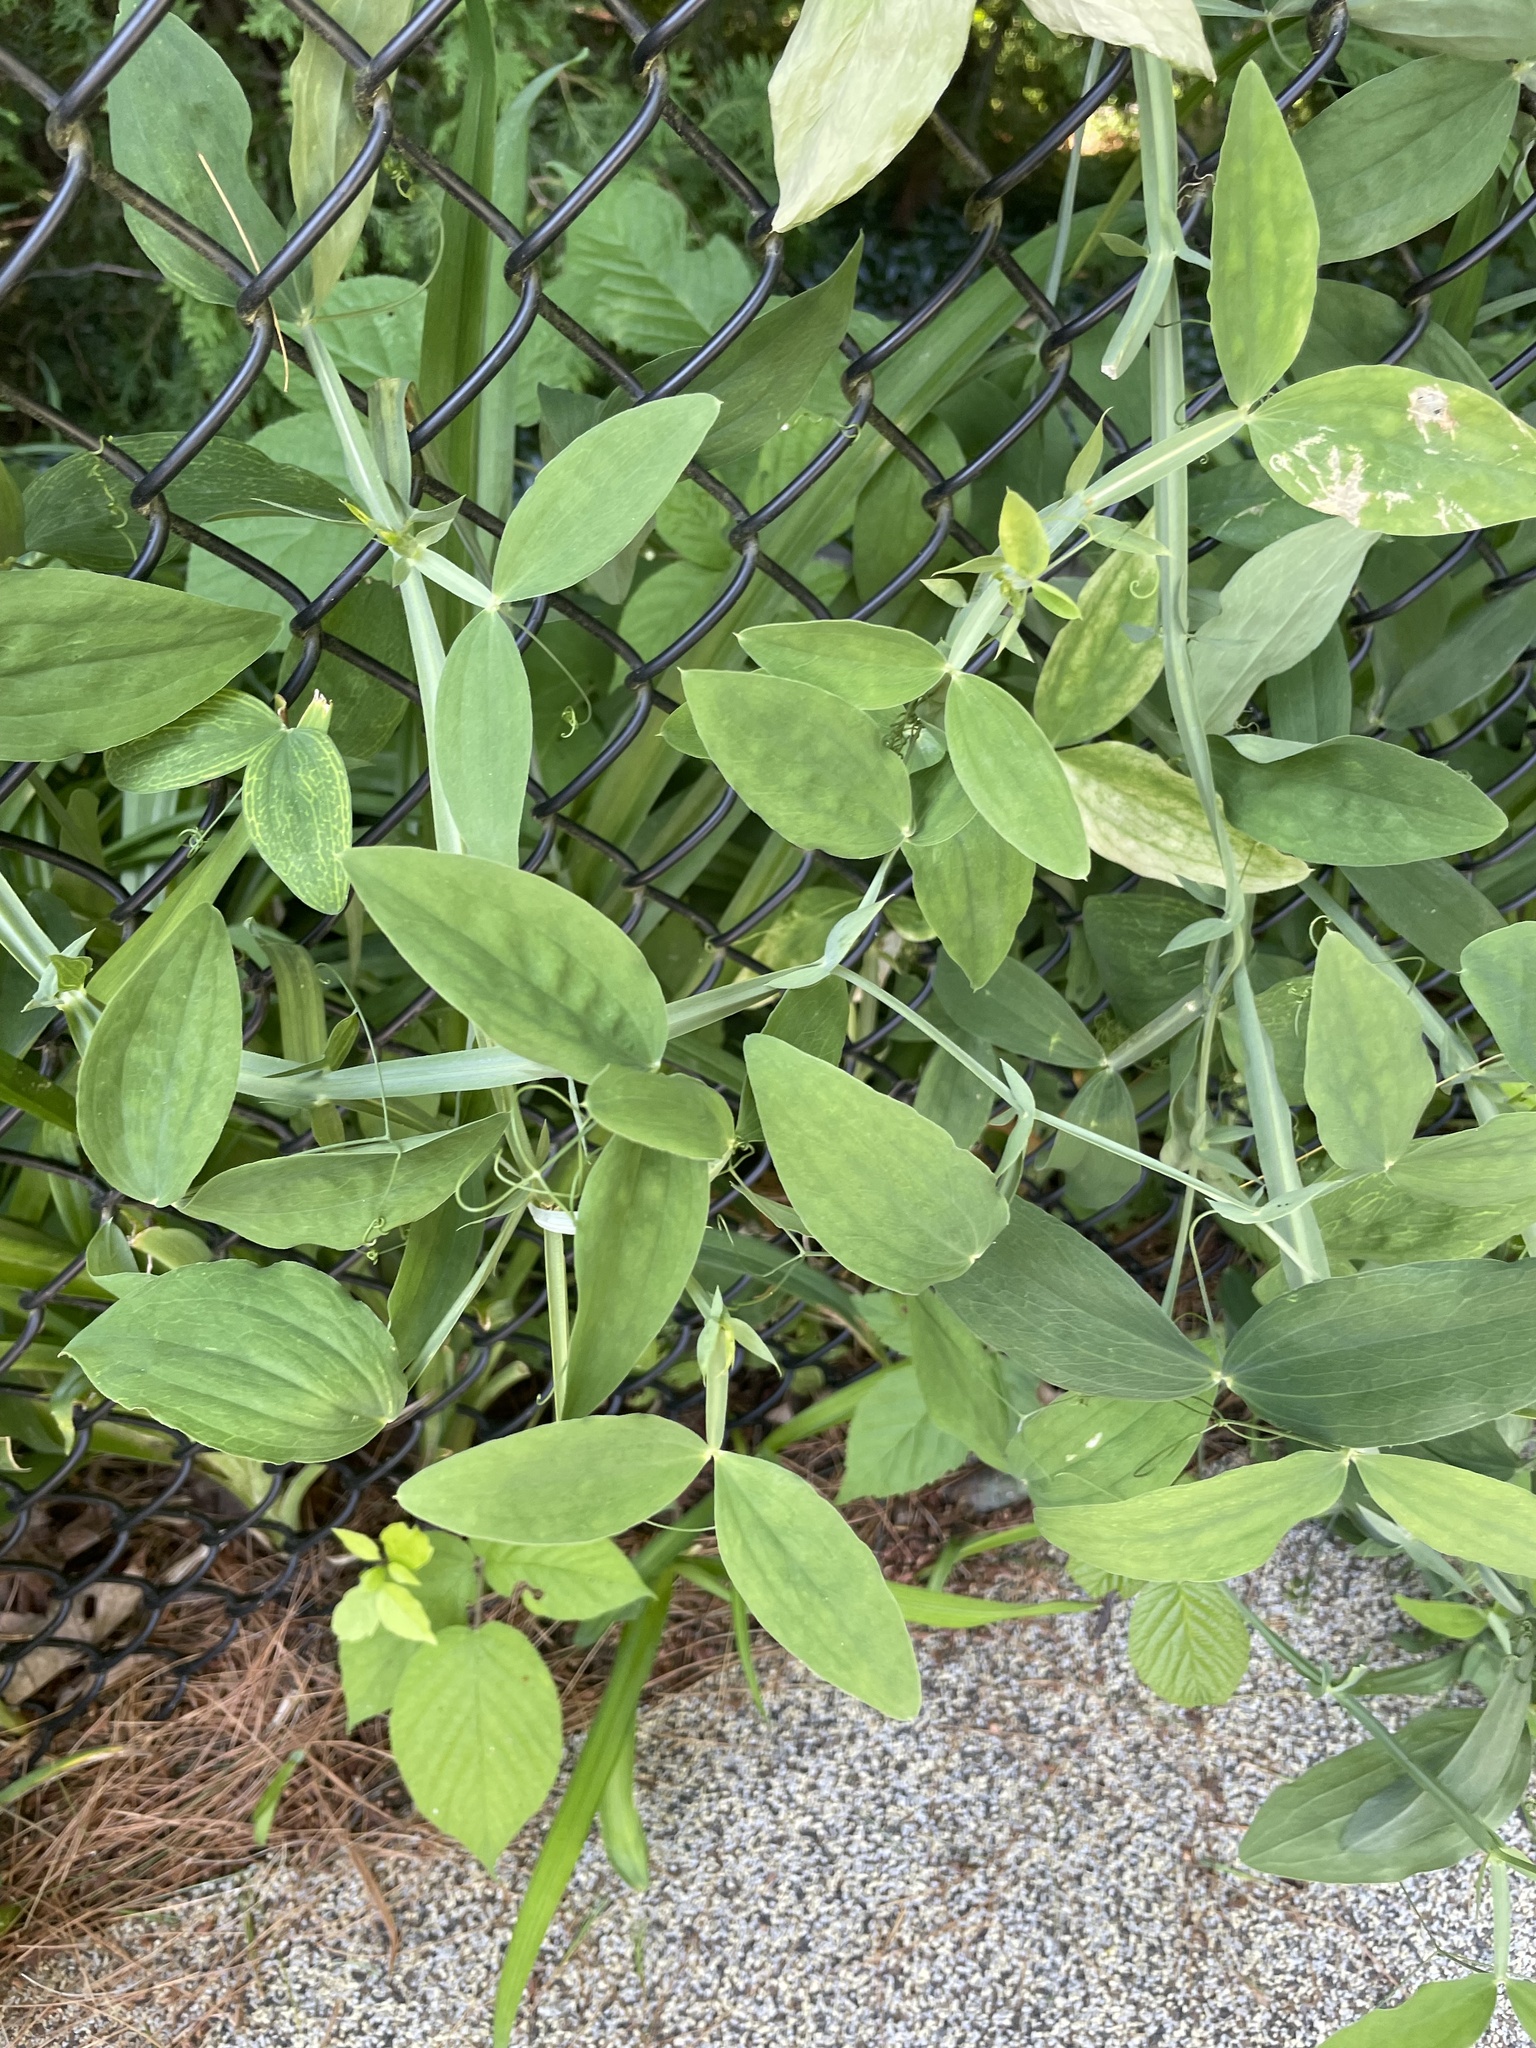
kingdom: Plantae
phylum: Tracheophyta
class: Magnoliopsida
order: Fabales
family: Fabaceae
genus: Lathyrus
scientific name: Lathyrus latifolius
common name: Perennial pea
